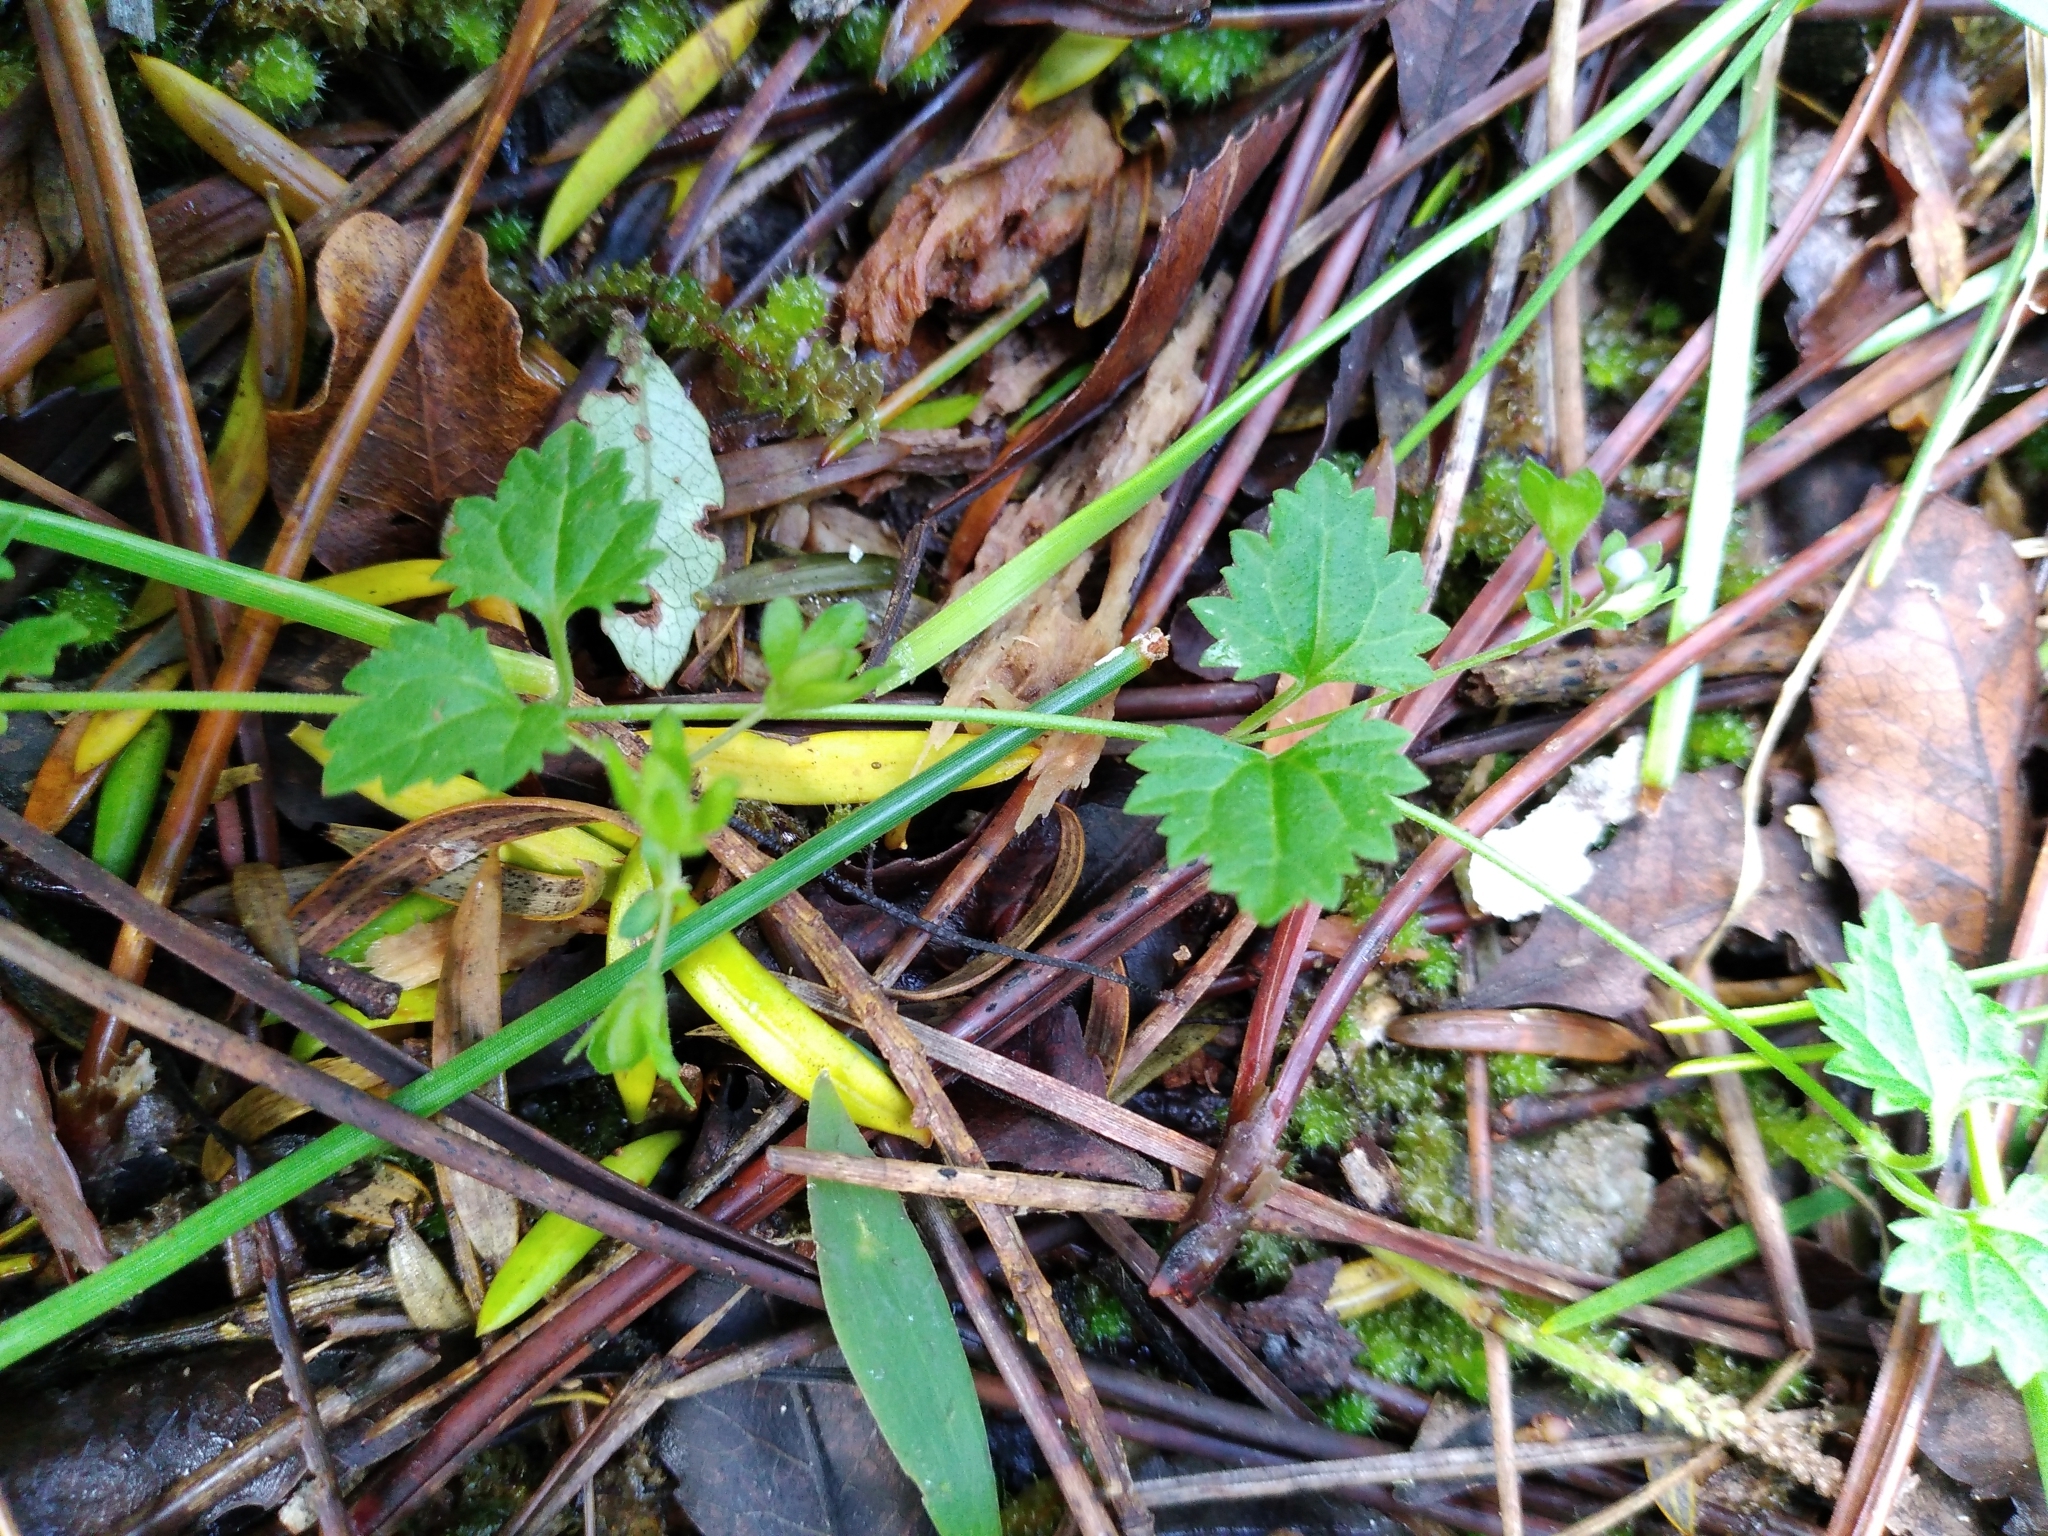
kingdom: Plantae
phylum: Tracheophyta
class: Magnoliopsida
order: Lamiales
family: Plantaginaceae
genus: Veronica
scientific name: Veronica plebeia
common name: Speedwell
